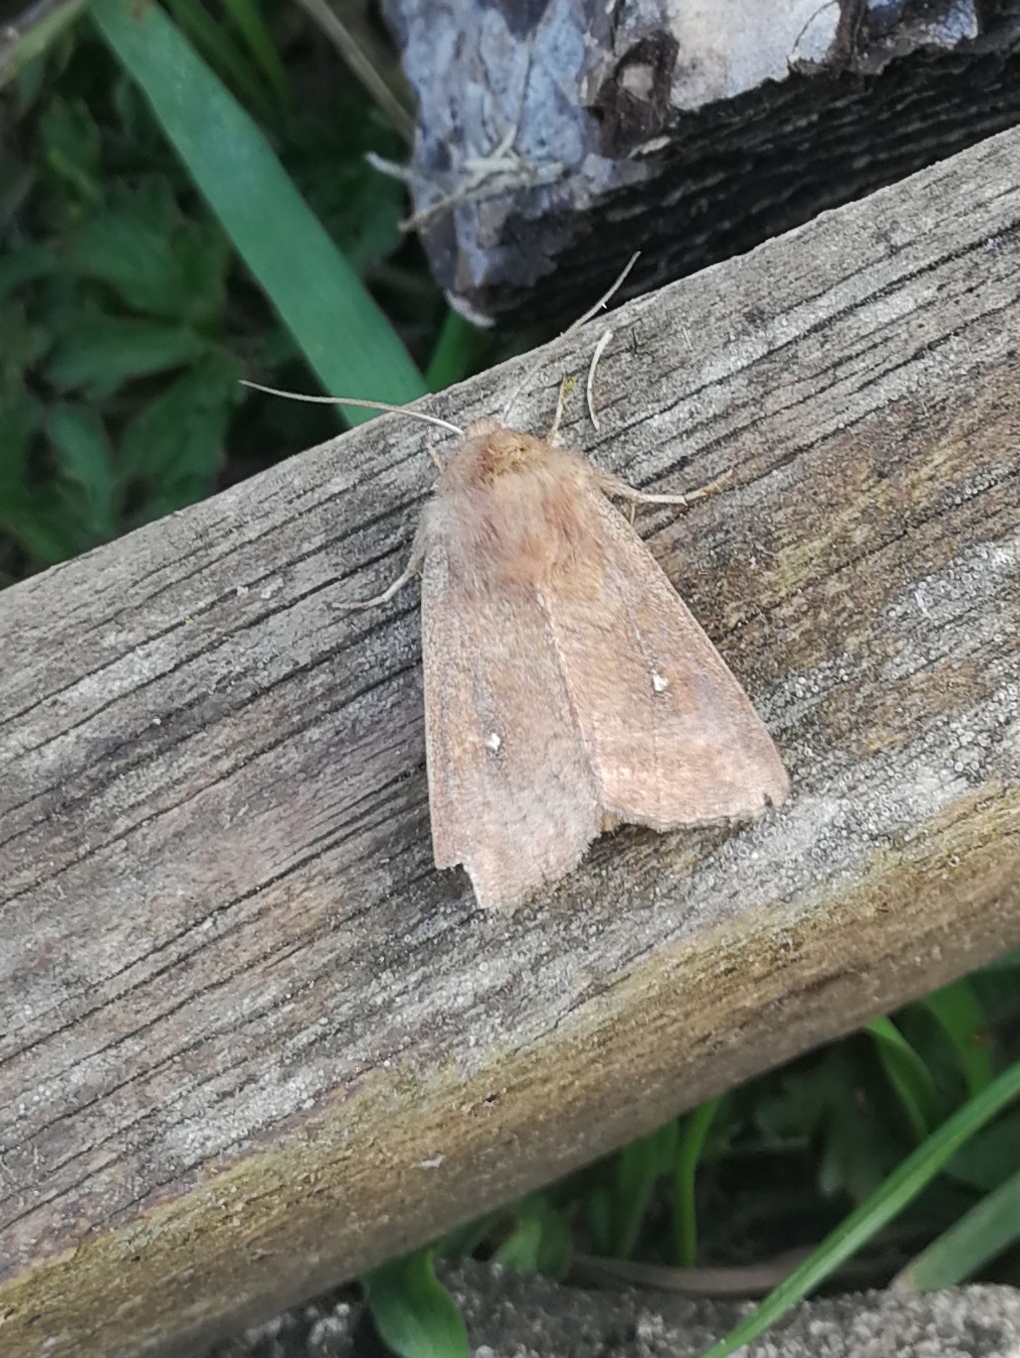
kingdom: Animalia
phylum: Arthropoda
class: Insecta
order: Lepidoptera
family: Noctuidae
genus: Mythimna
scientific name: Mythimna albipuncta
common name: White-point
